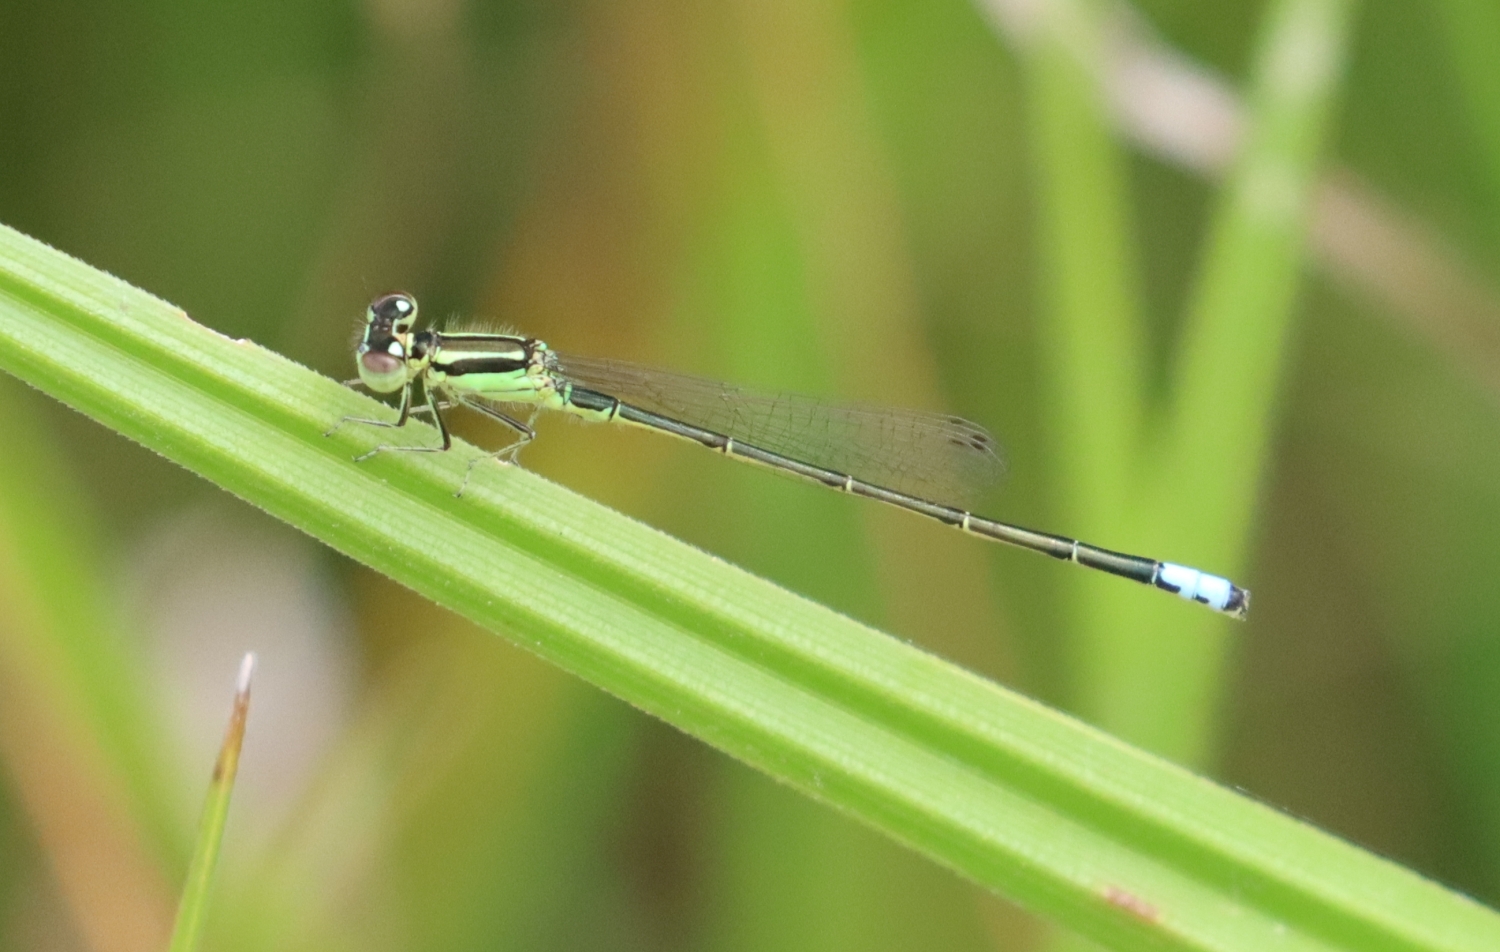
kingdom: Animalia
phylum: Arthropoda
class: Insecta
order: Odonata
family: Coenagrionidae
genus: Ischnura
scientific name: Ischnura verticalis
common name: Eastern forktail
